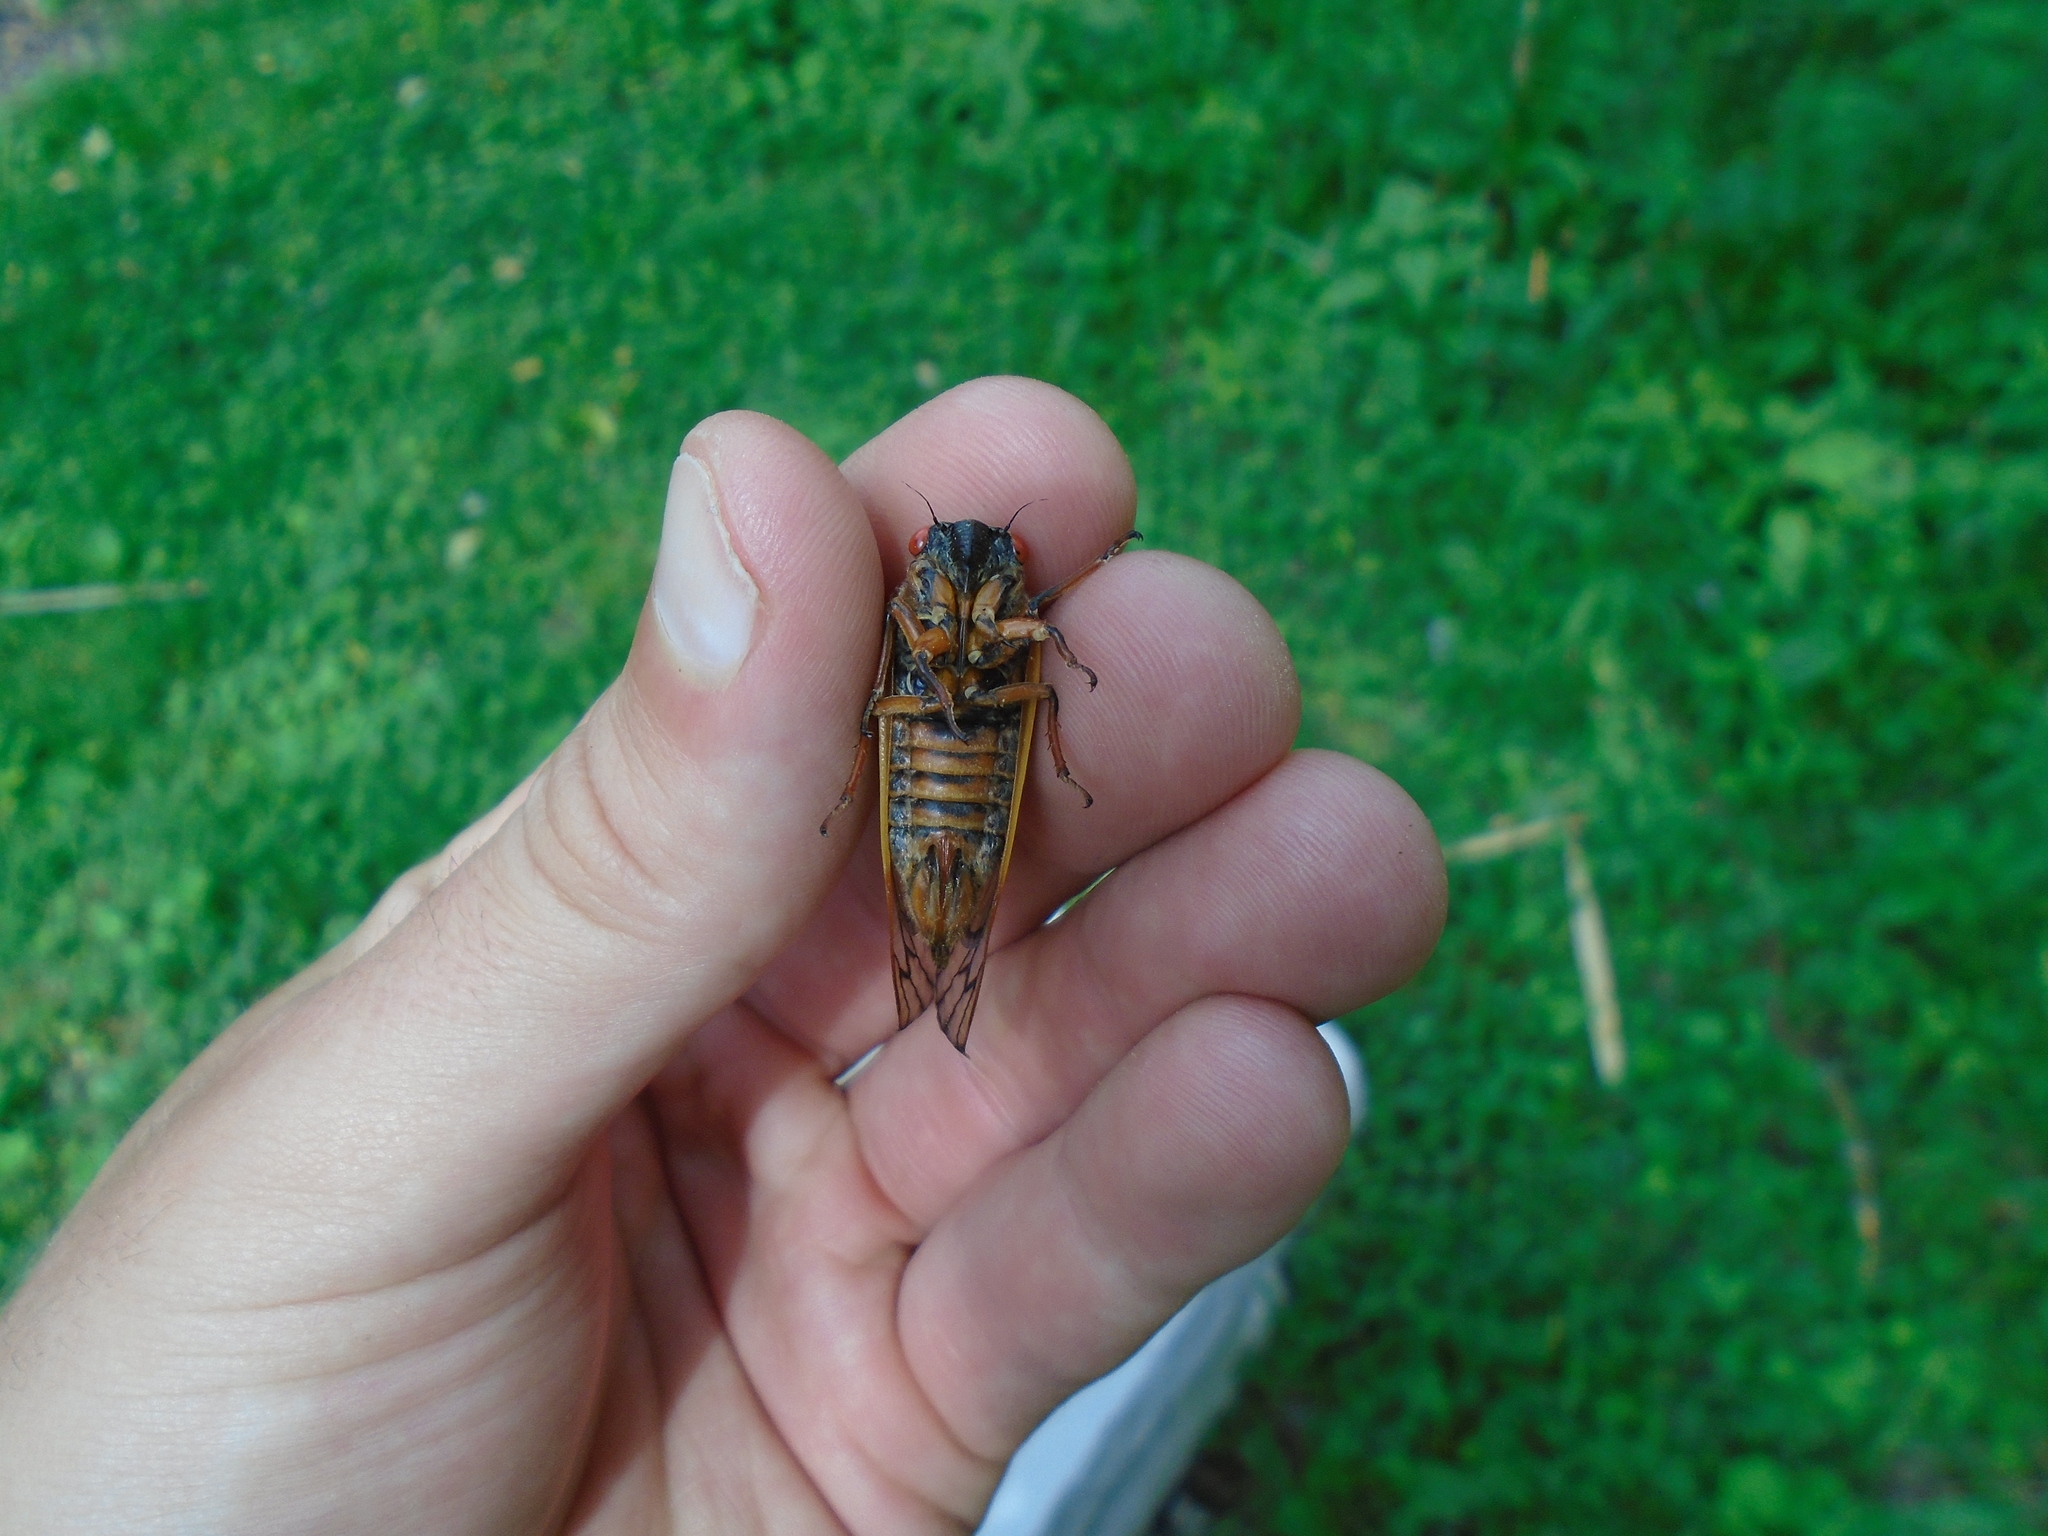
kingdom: Animalia
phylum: Arthropoda
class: Insecta
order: Hemiptera
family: Cicadidae
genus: Magicicada
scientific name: Magicicada septendecim
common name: Periodical cicada
